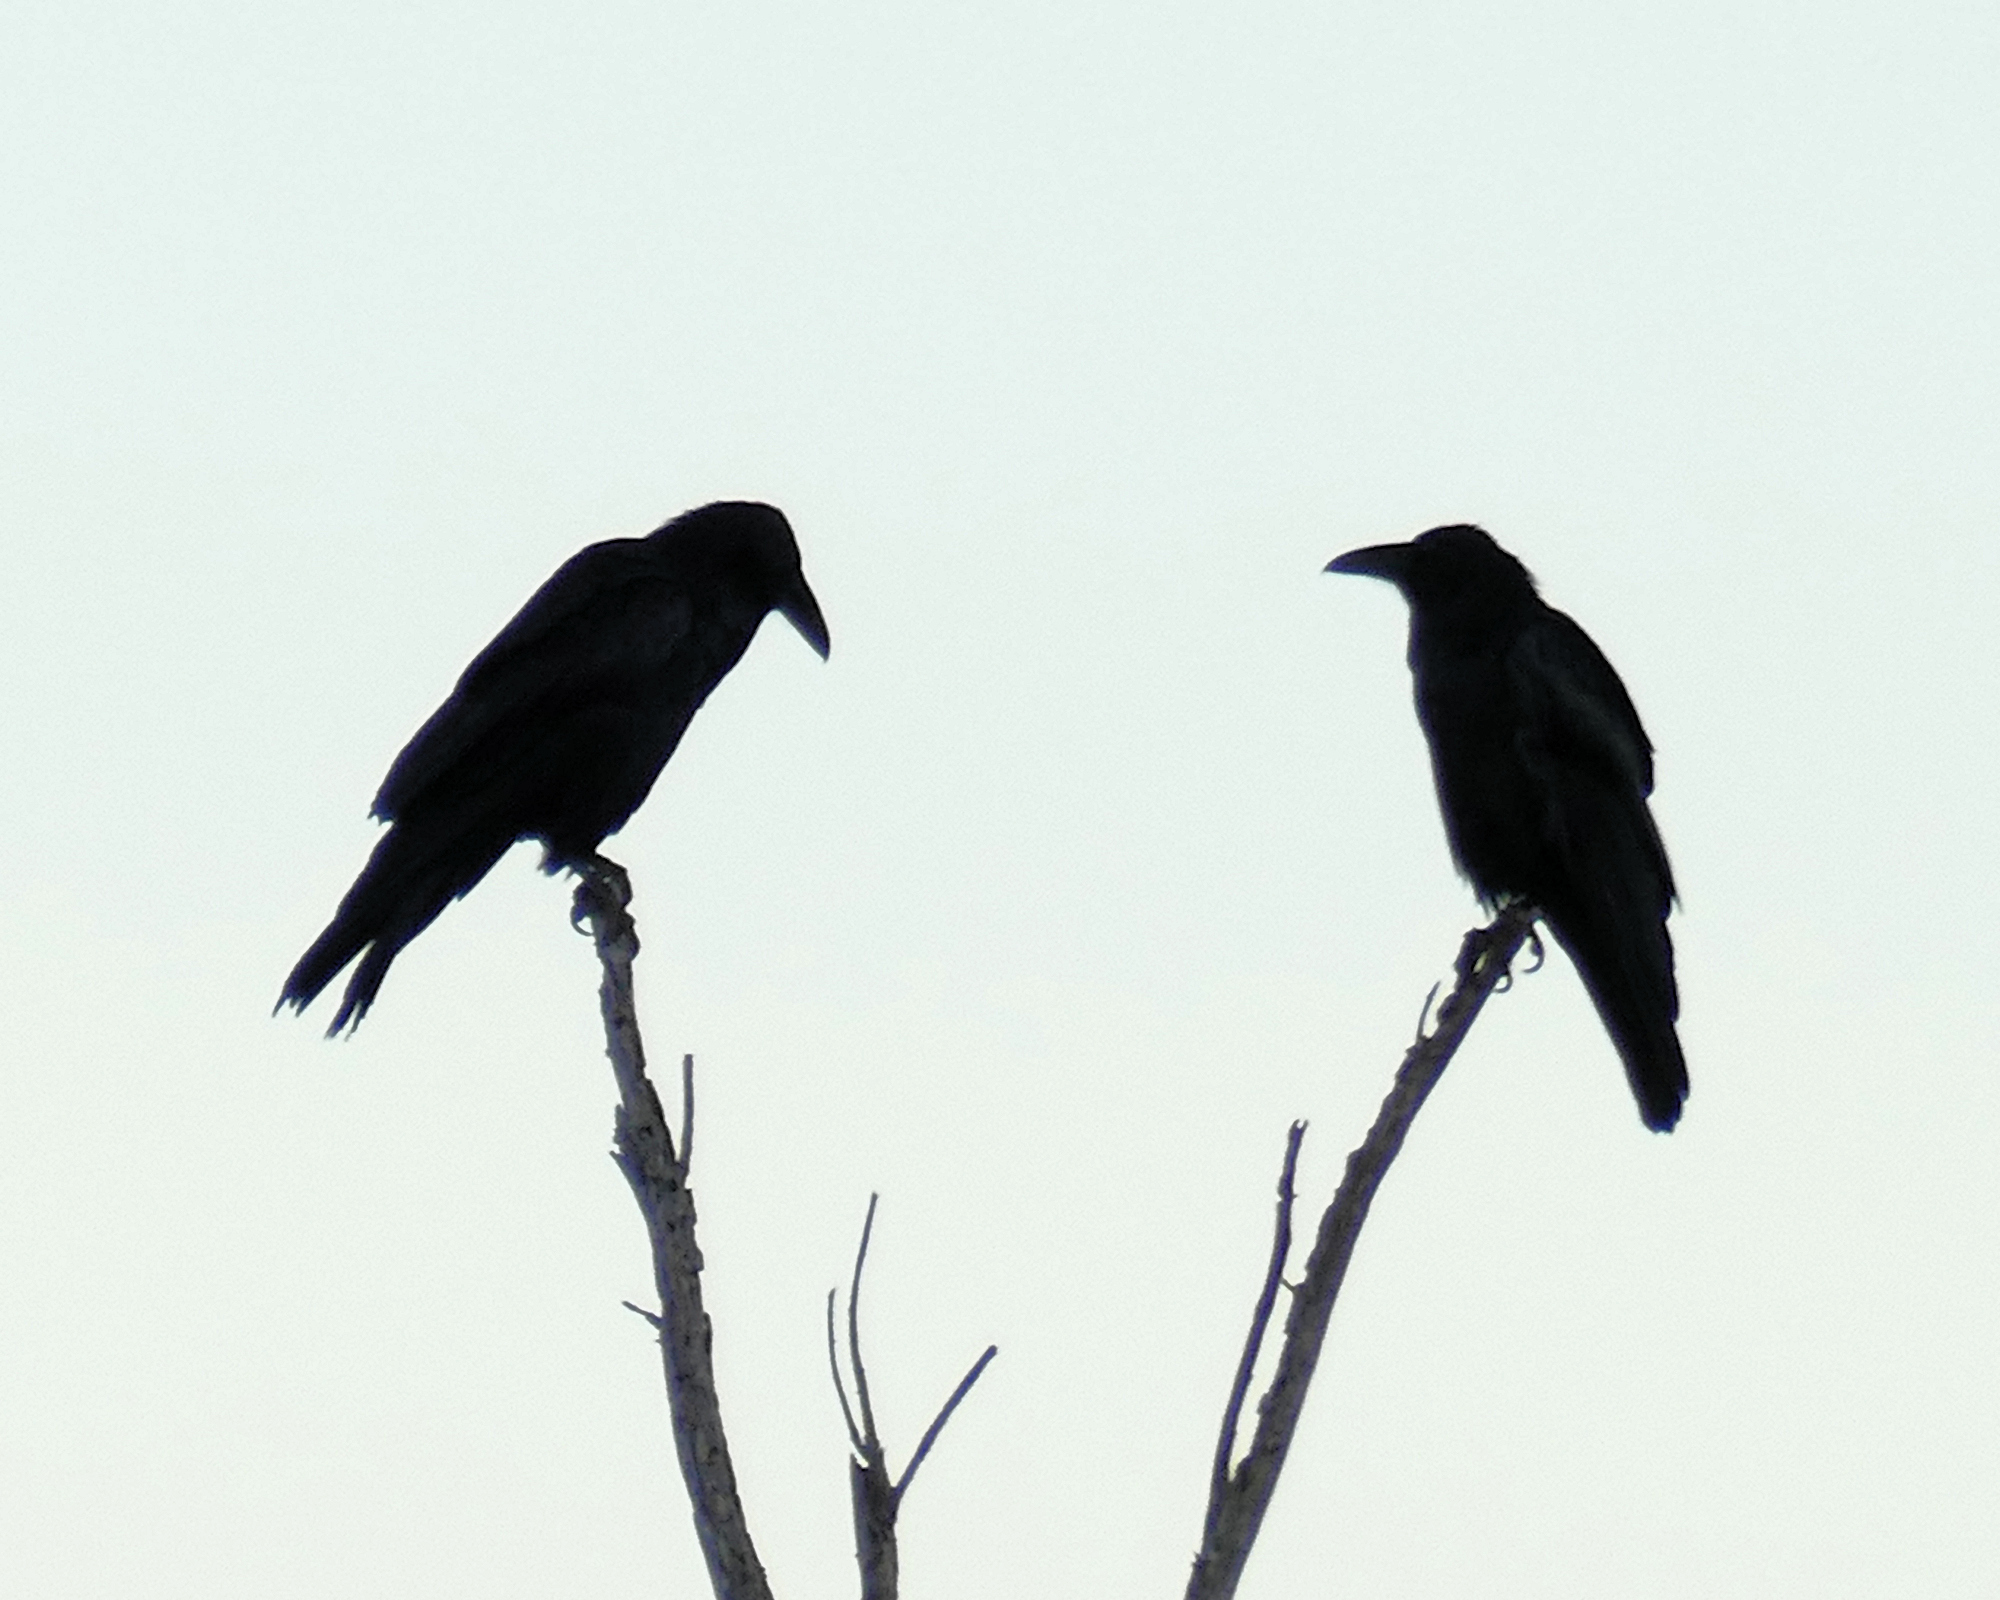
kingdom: Animalia
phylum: Chordata
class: Aves
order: Passeriformes
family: Corvidae
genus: Corvus
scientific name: Corvus corax
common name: Common raven
